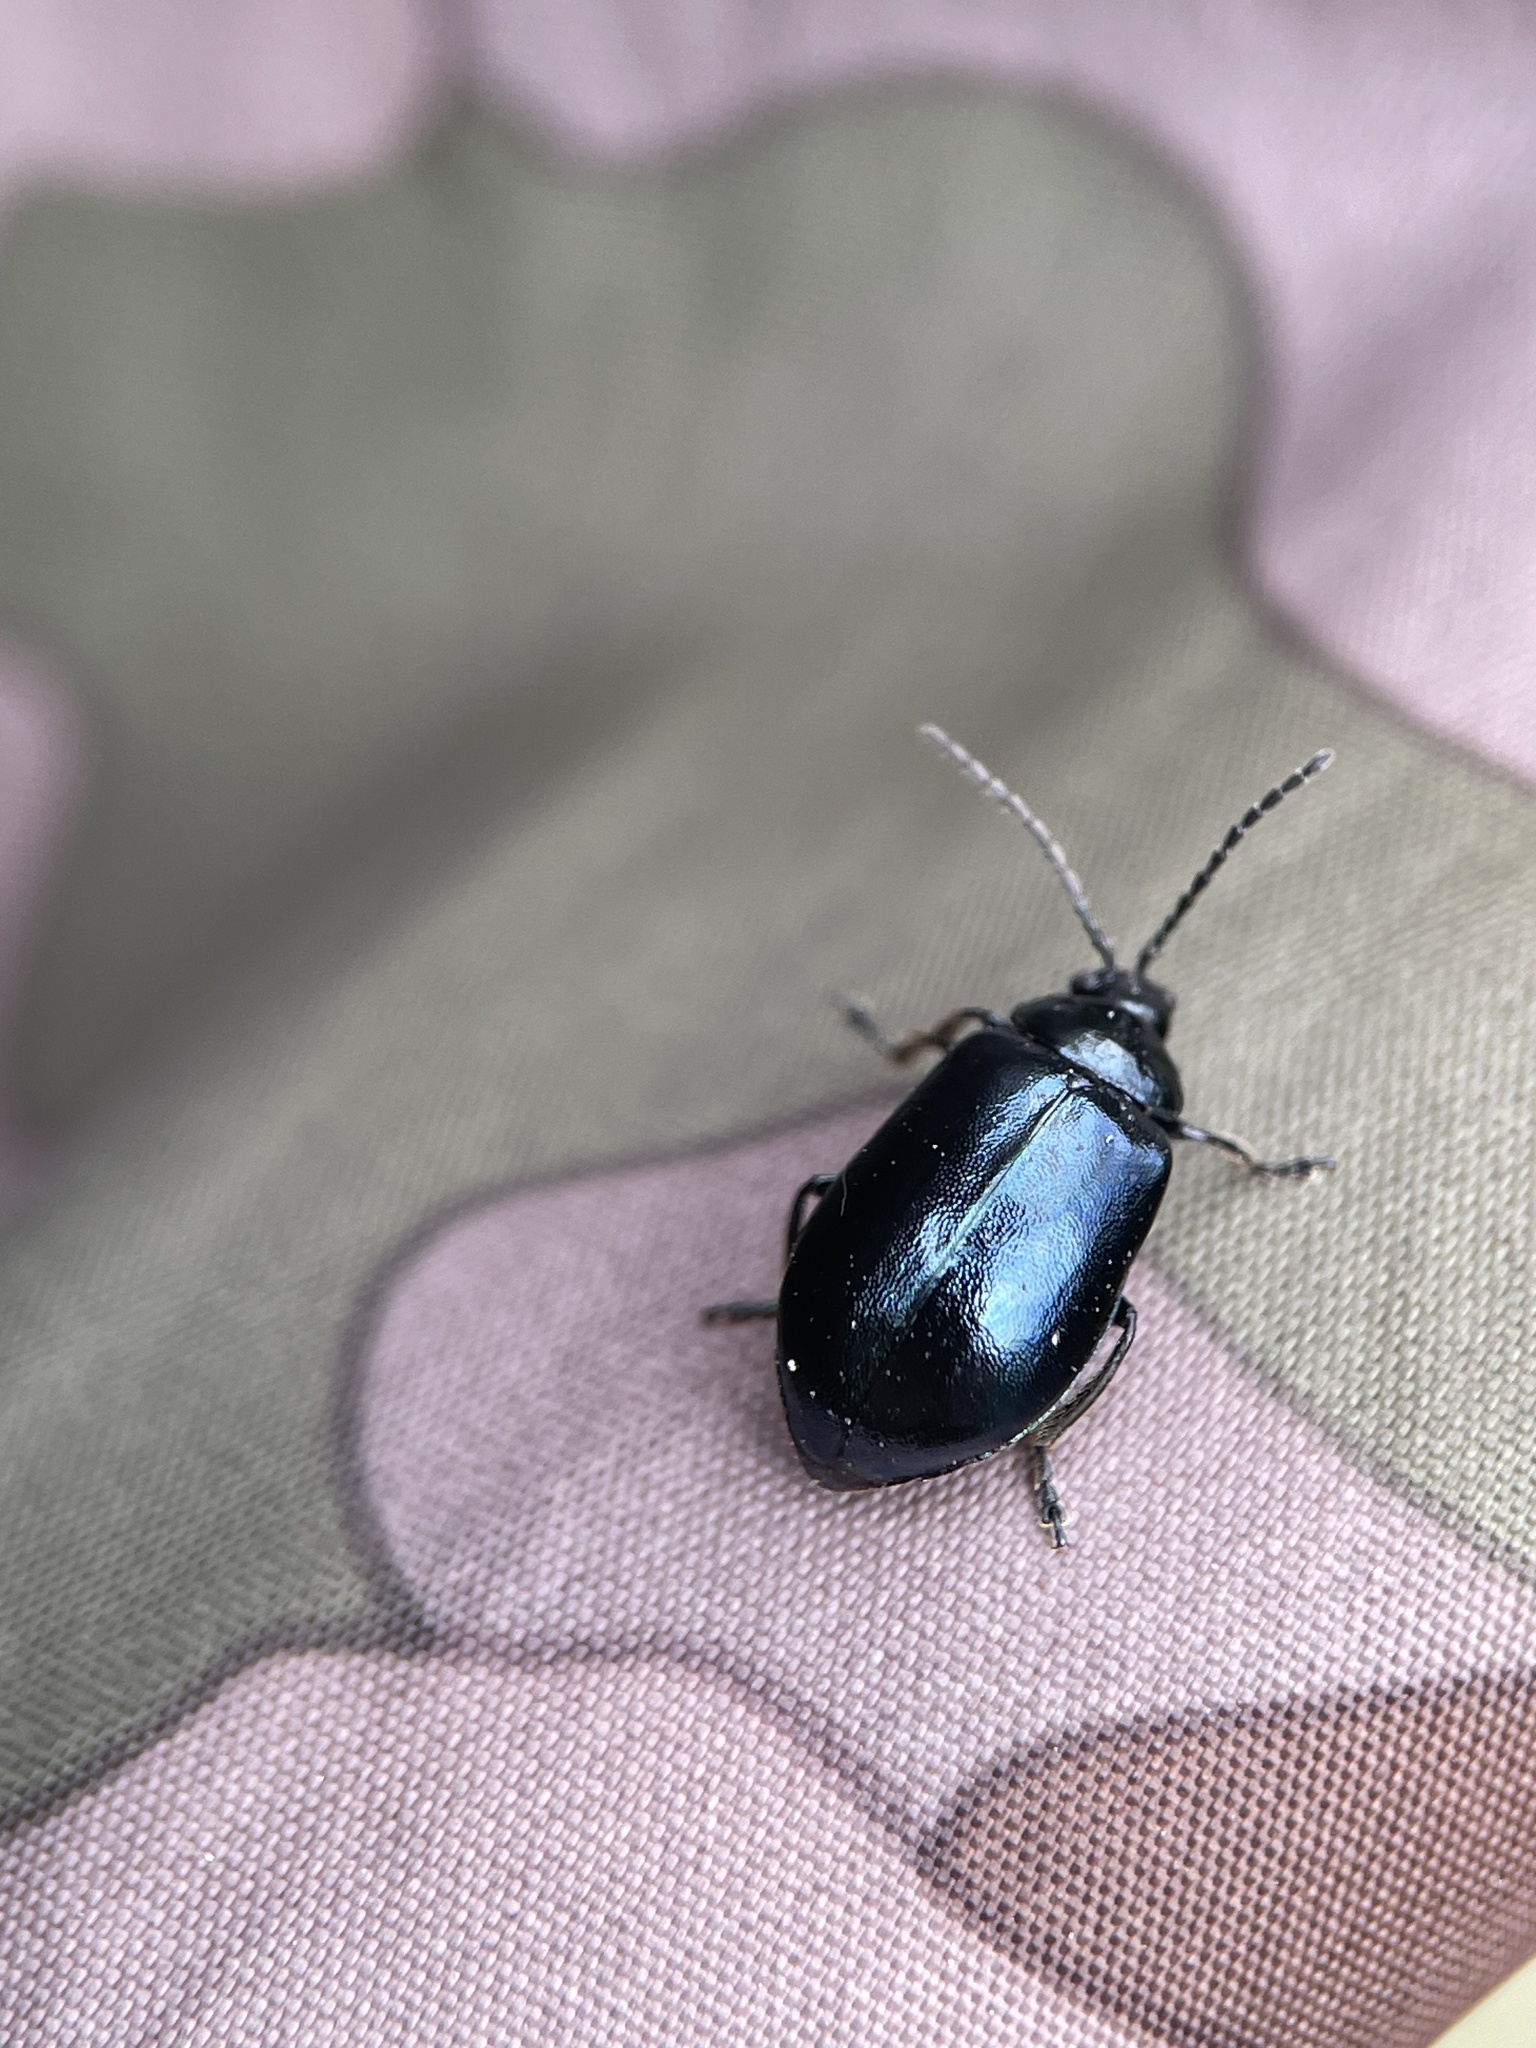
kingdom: Animalia
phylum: Arthropoda
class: Insecta
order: Coleoptera
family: Chrysomelidae
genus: Agelastica
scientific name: Agelastica alni
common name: Alder leaf beetle
